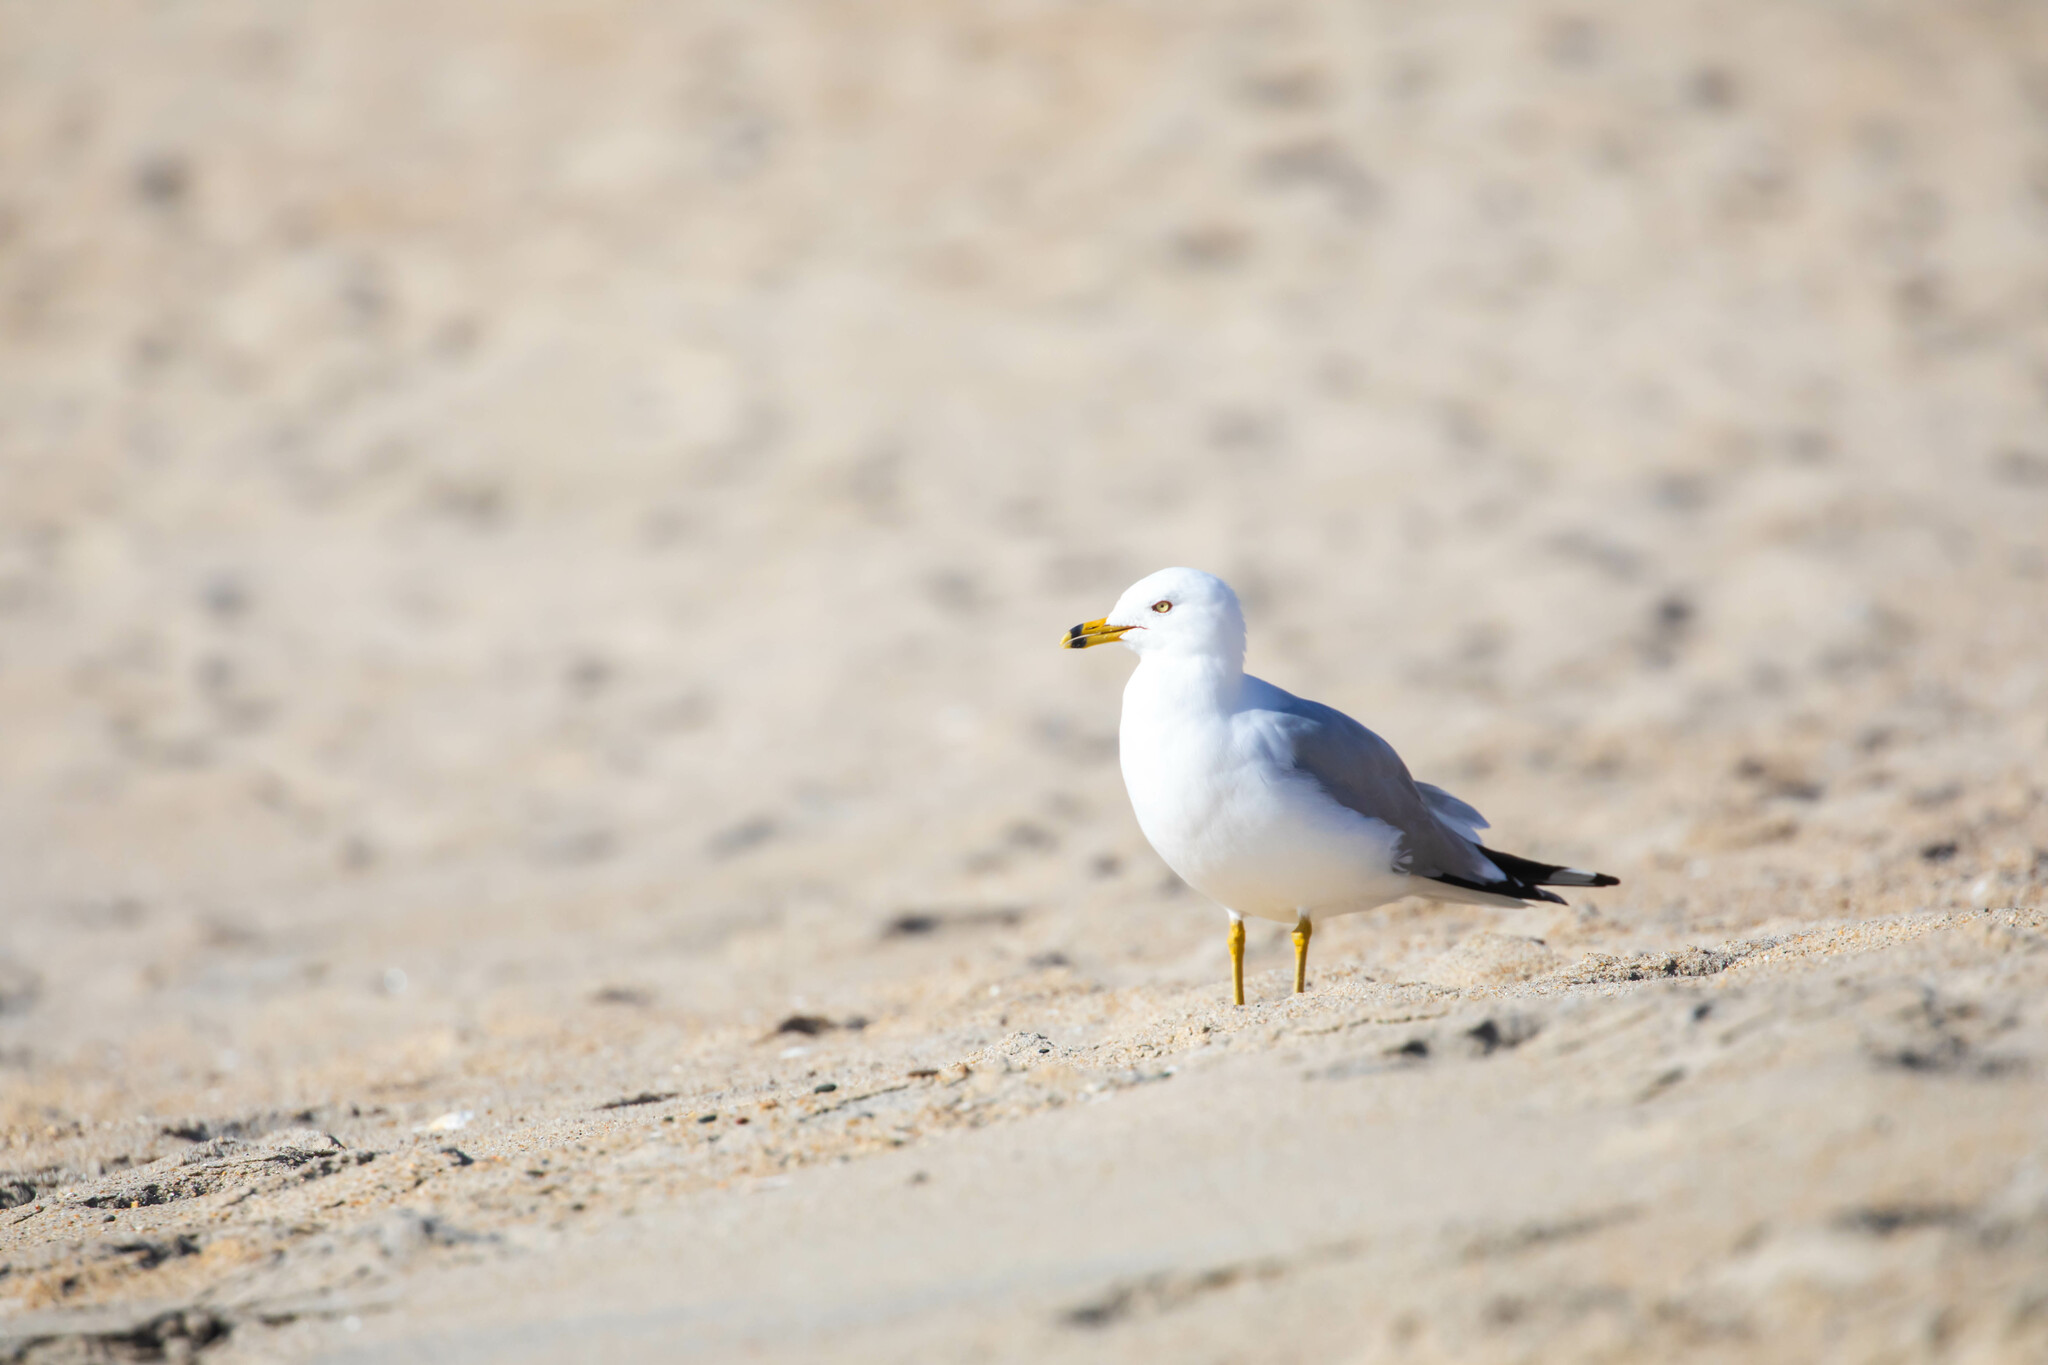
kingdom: Animalia
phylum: Chordata
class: Aves
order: Charadriiformes
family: Laridae
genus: Larus
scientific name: Larus delawarensis
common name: Ring-billed gull
